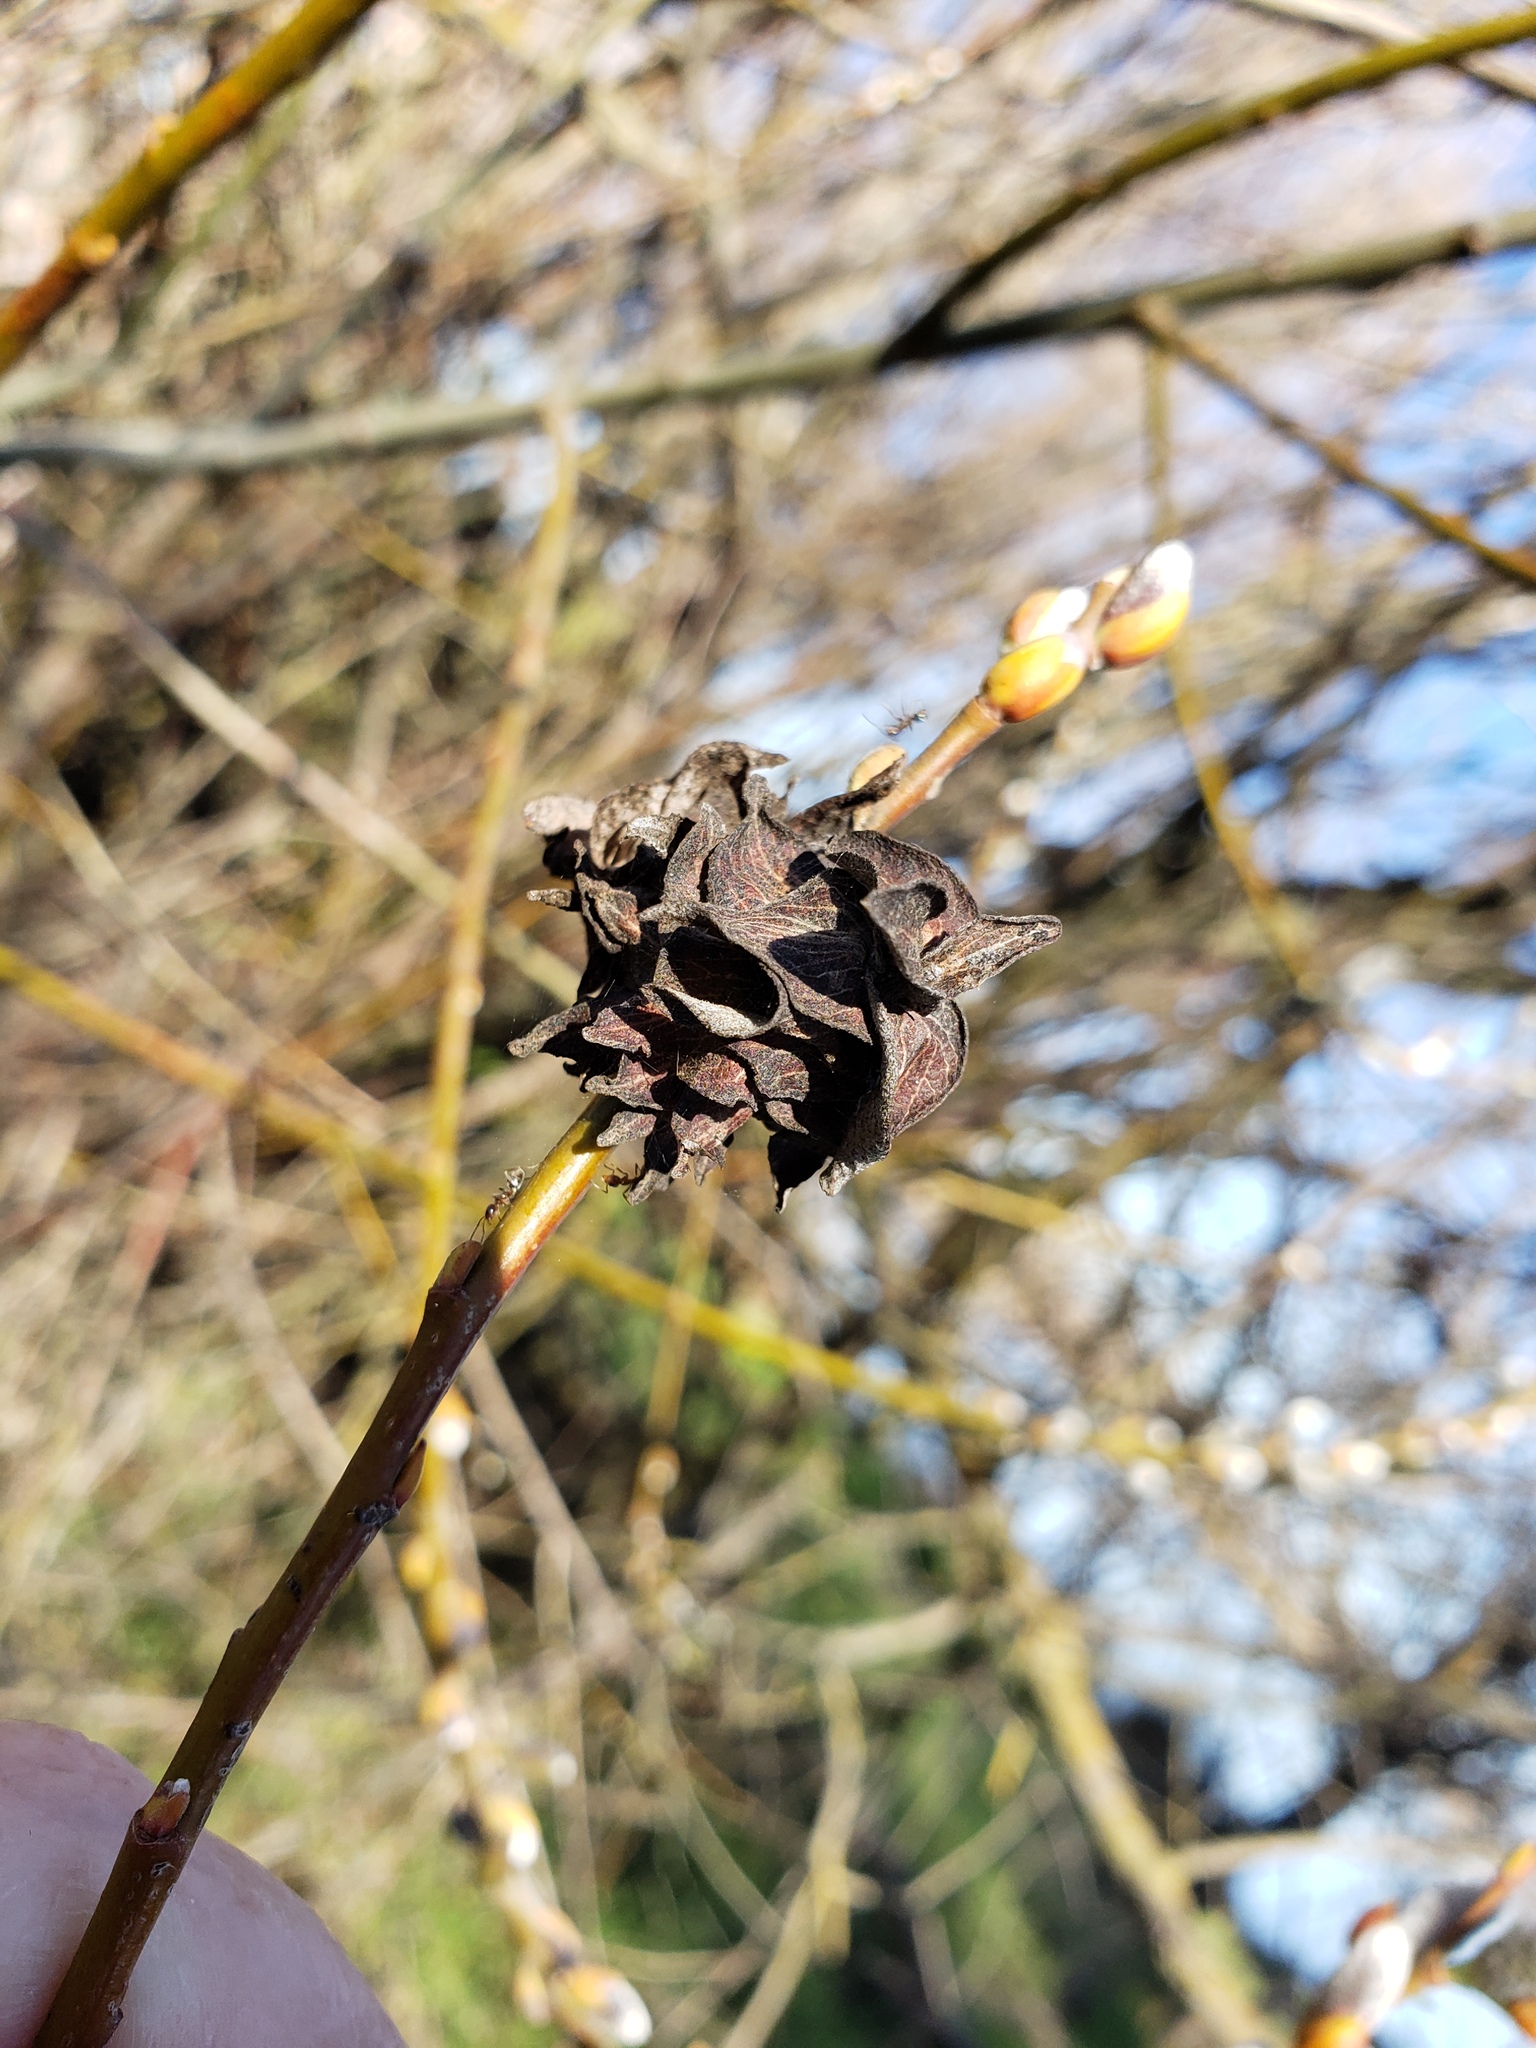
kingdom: Animalia
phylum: Arthropoda
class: Insecta
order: Diptera
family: Cecidomyiidae
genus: Rabdophaga
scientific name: Rabdophaga rosaria
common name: Willow rose gall midge
